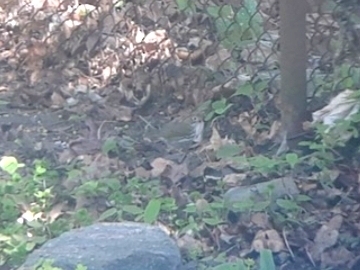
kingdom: Animalia
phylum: Chordata
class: Aves
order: Passeriformes
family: Parulidae
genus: Seiurus
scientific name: Seiurus aurocapilla
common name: Ovenbird
